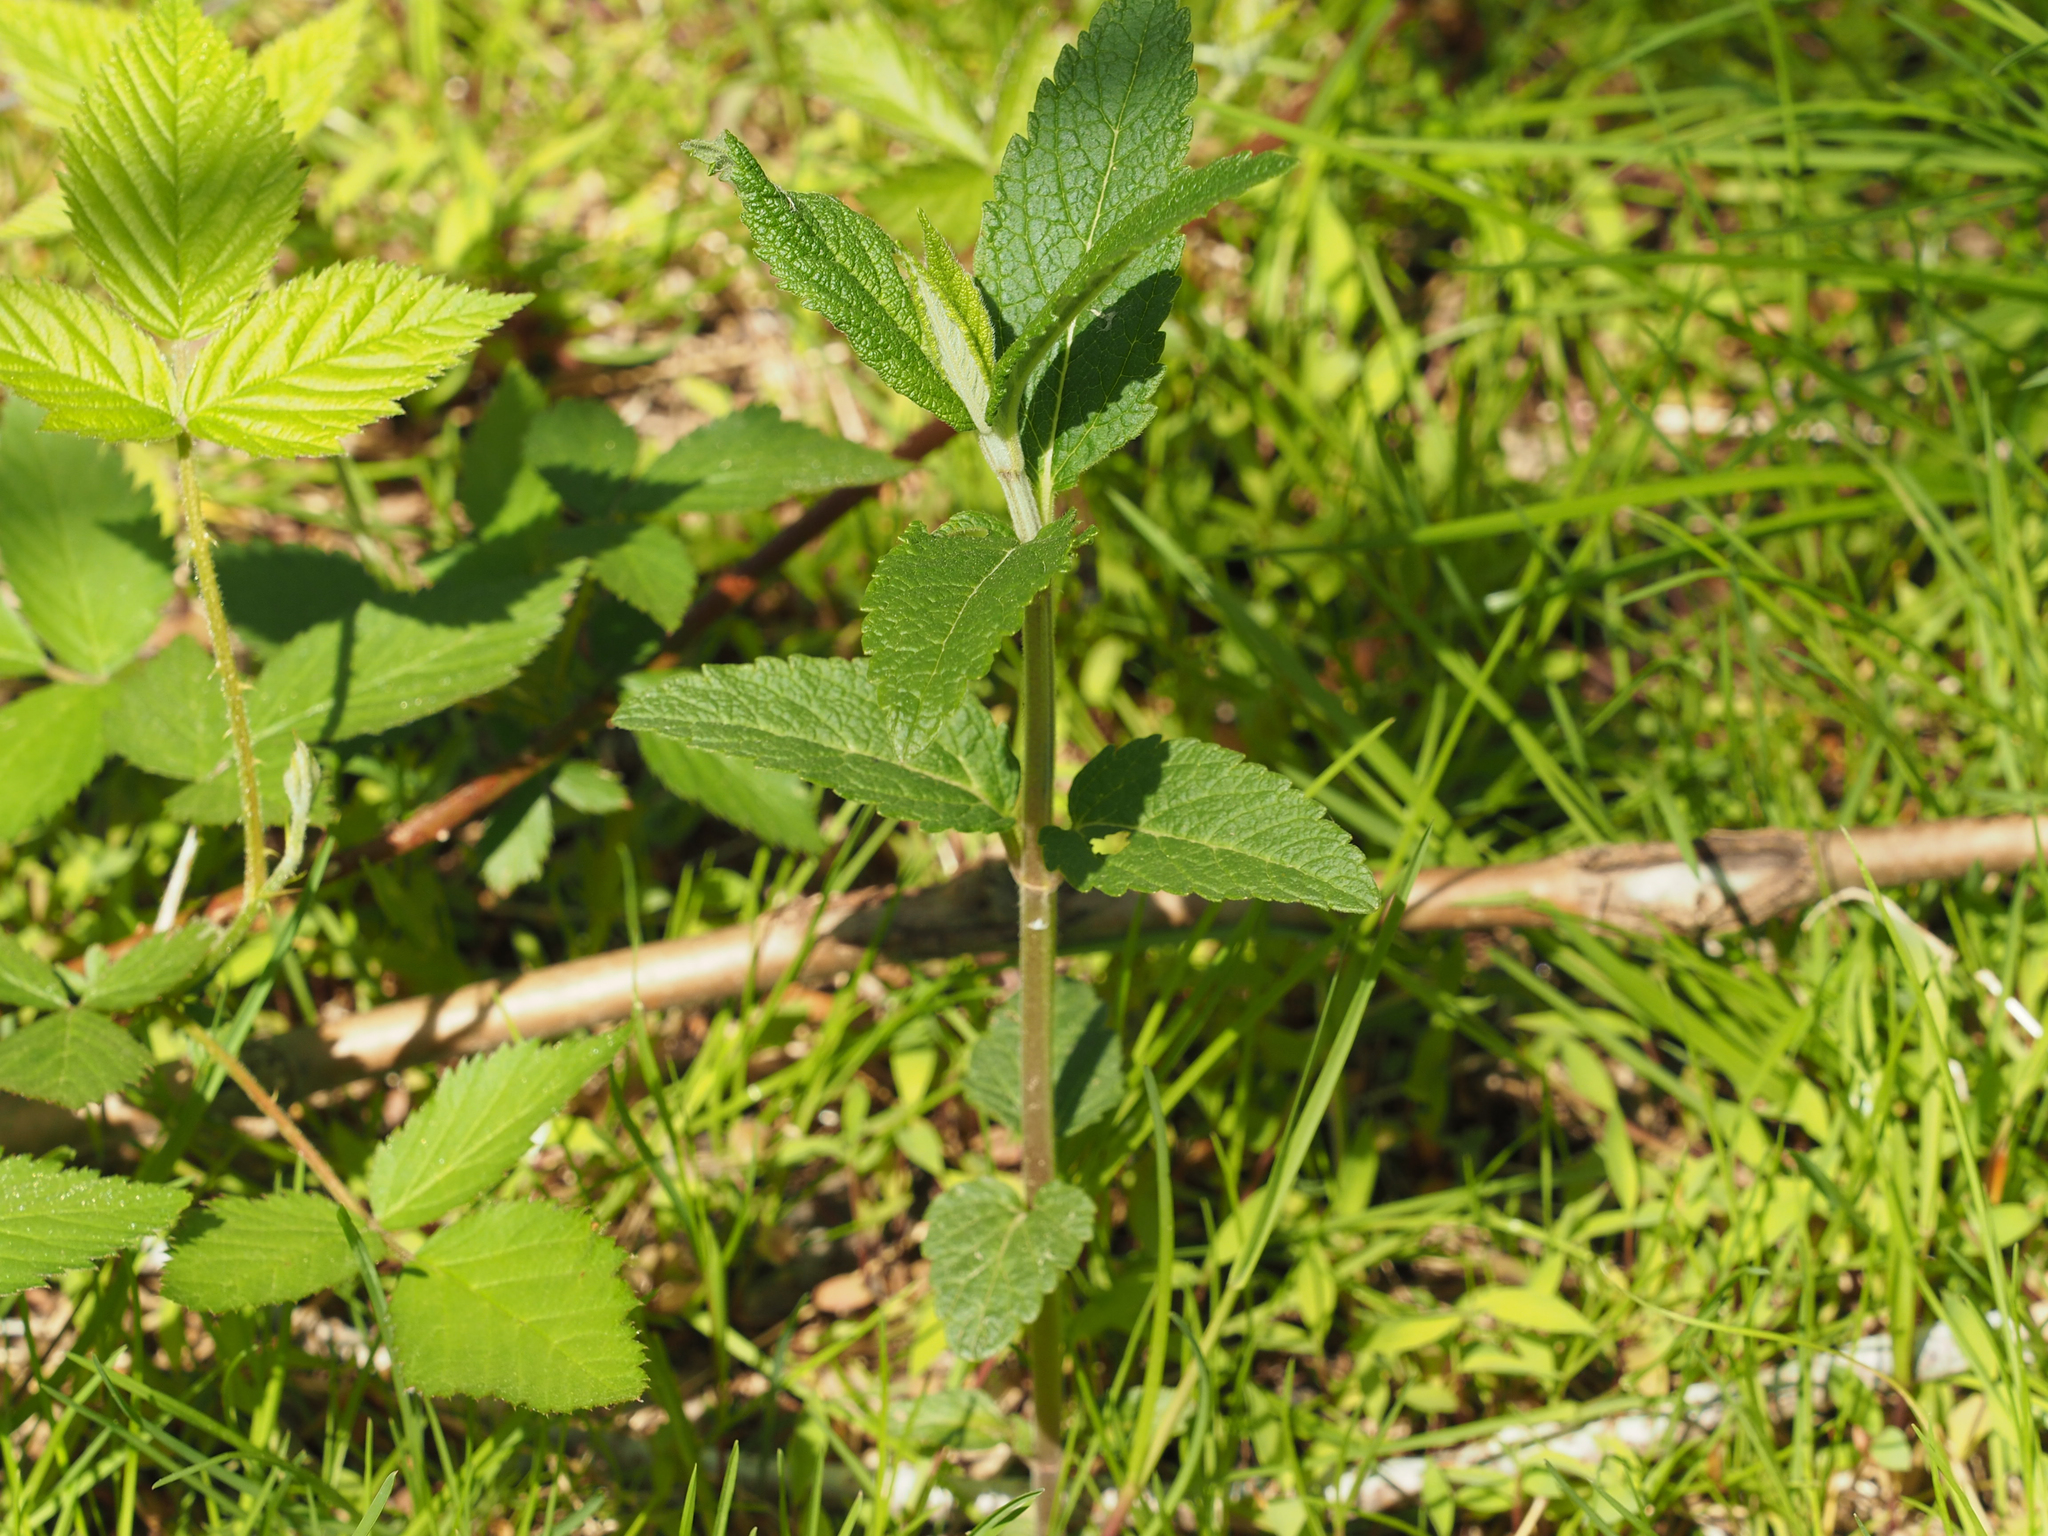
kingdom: Plantae
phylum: Tracheophyta
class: Magnoliopsida
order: Lamiales
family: Lamiaceae
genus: Teucrium
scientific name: Teucrium canadense
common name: American germander
